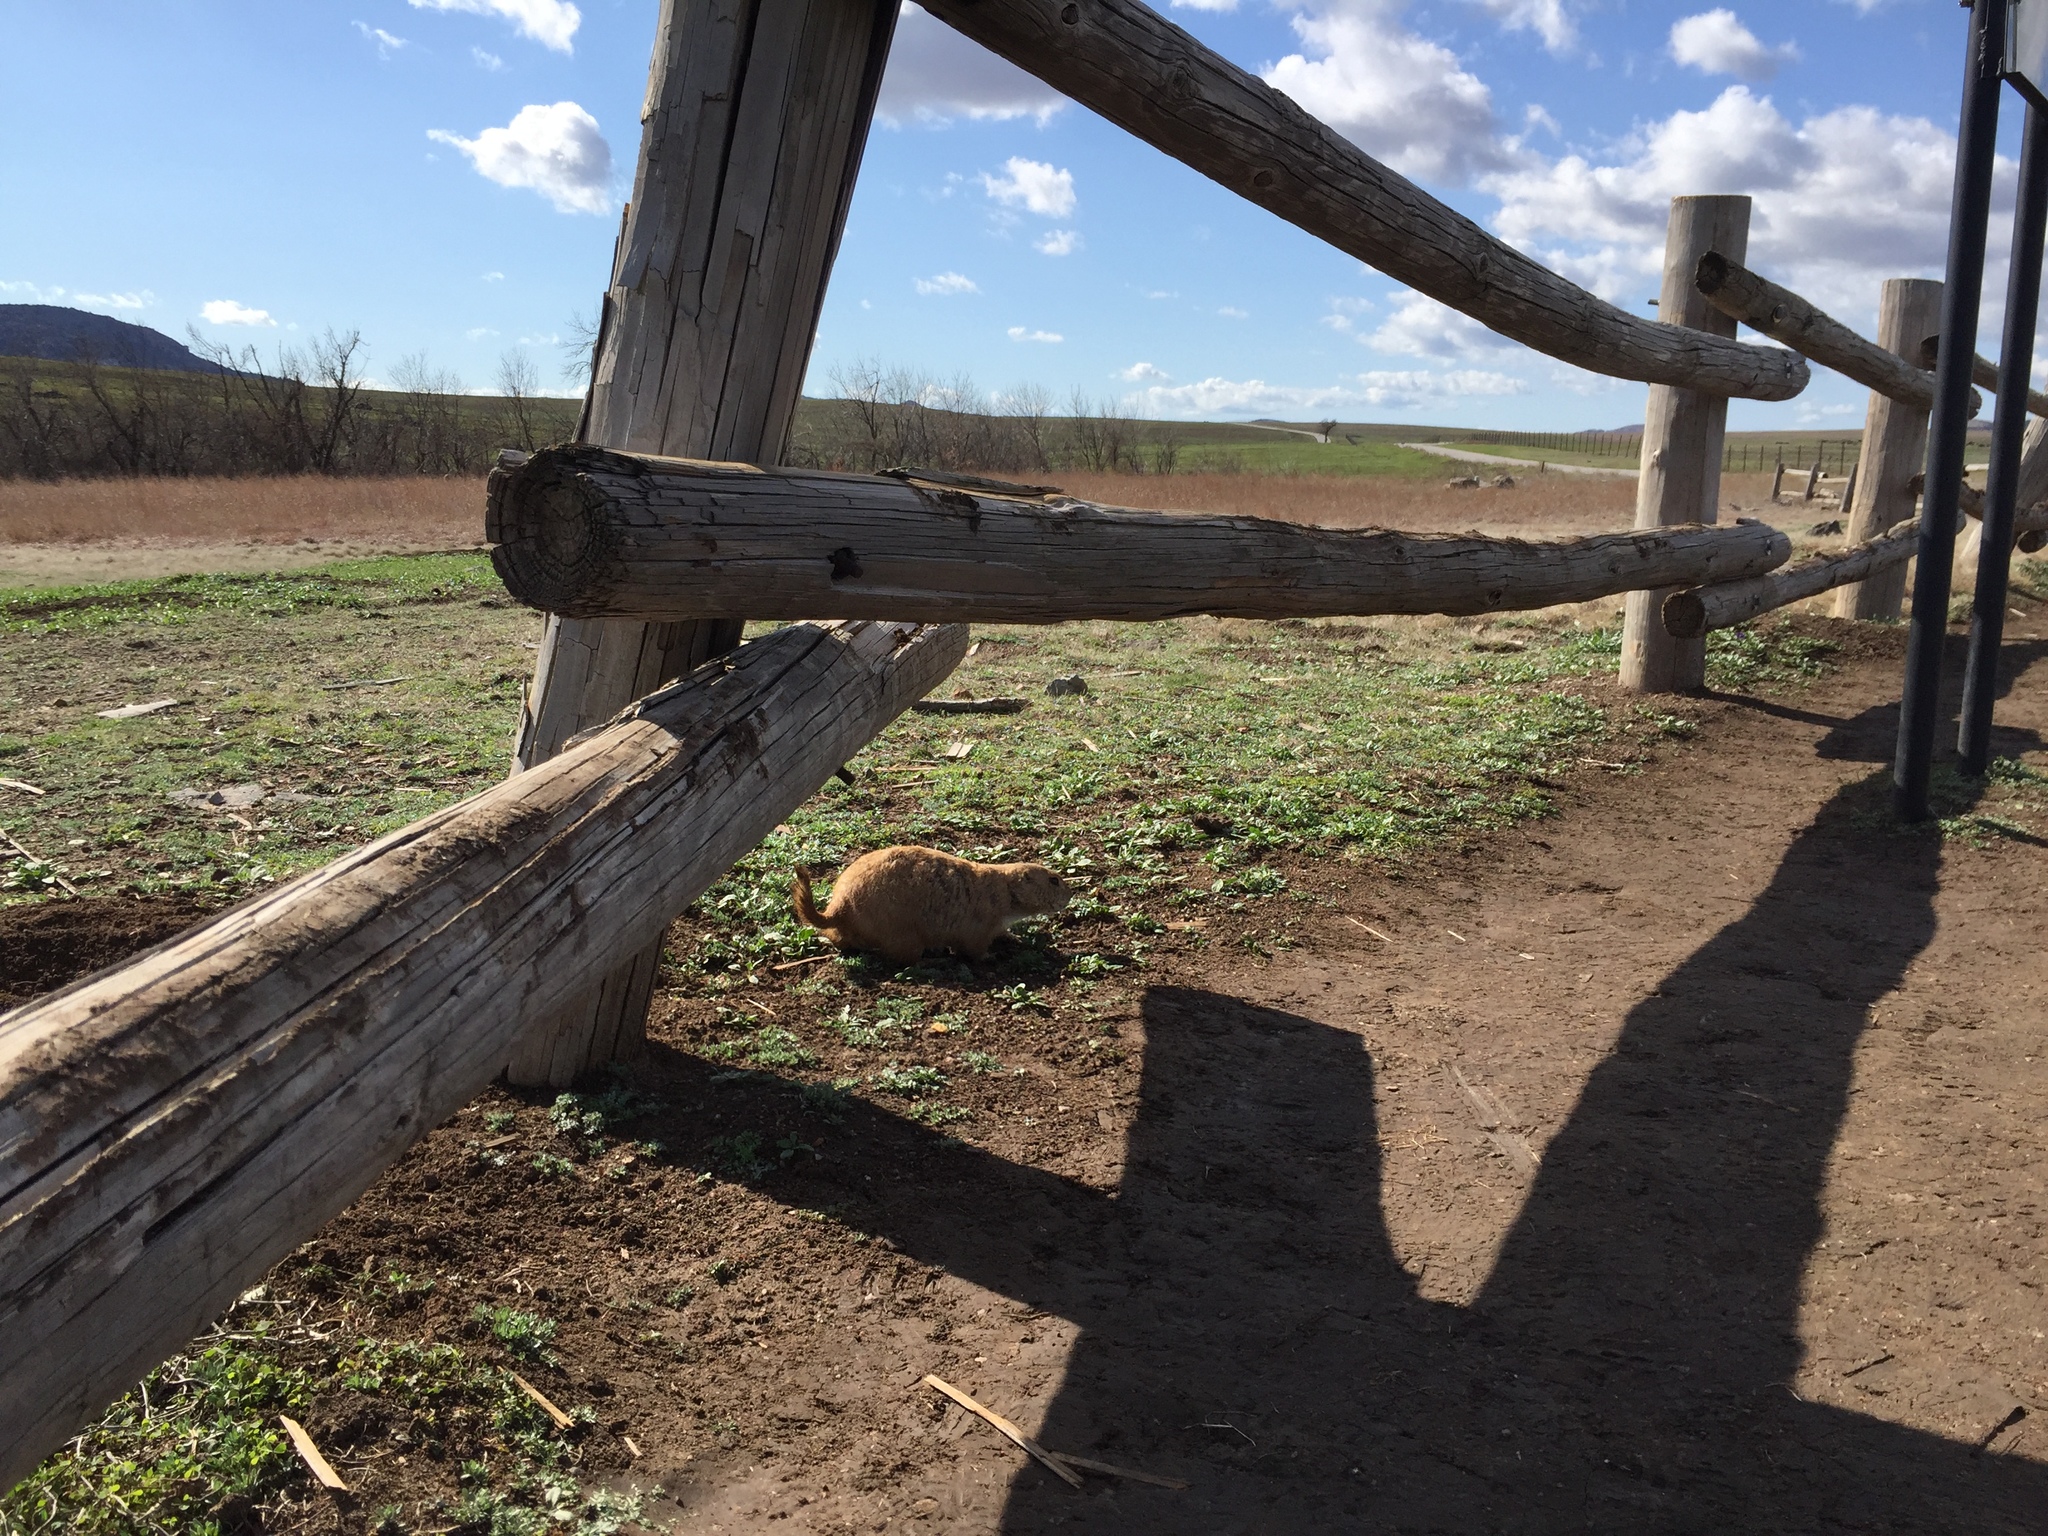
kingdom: Animalia
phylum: Chordata
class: Mammalia
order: Rodentia
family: Sciuridae
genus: Cynomys
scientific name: Cynomys ludovicianus
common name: Black-tailed prairie dog
